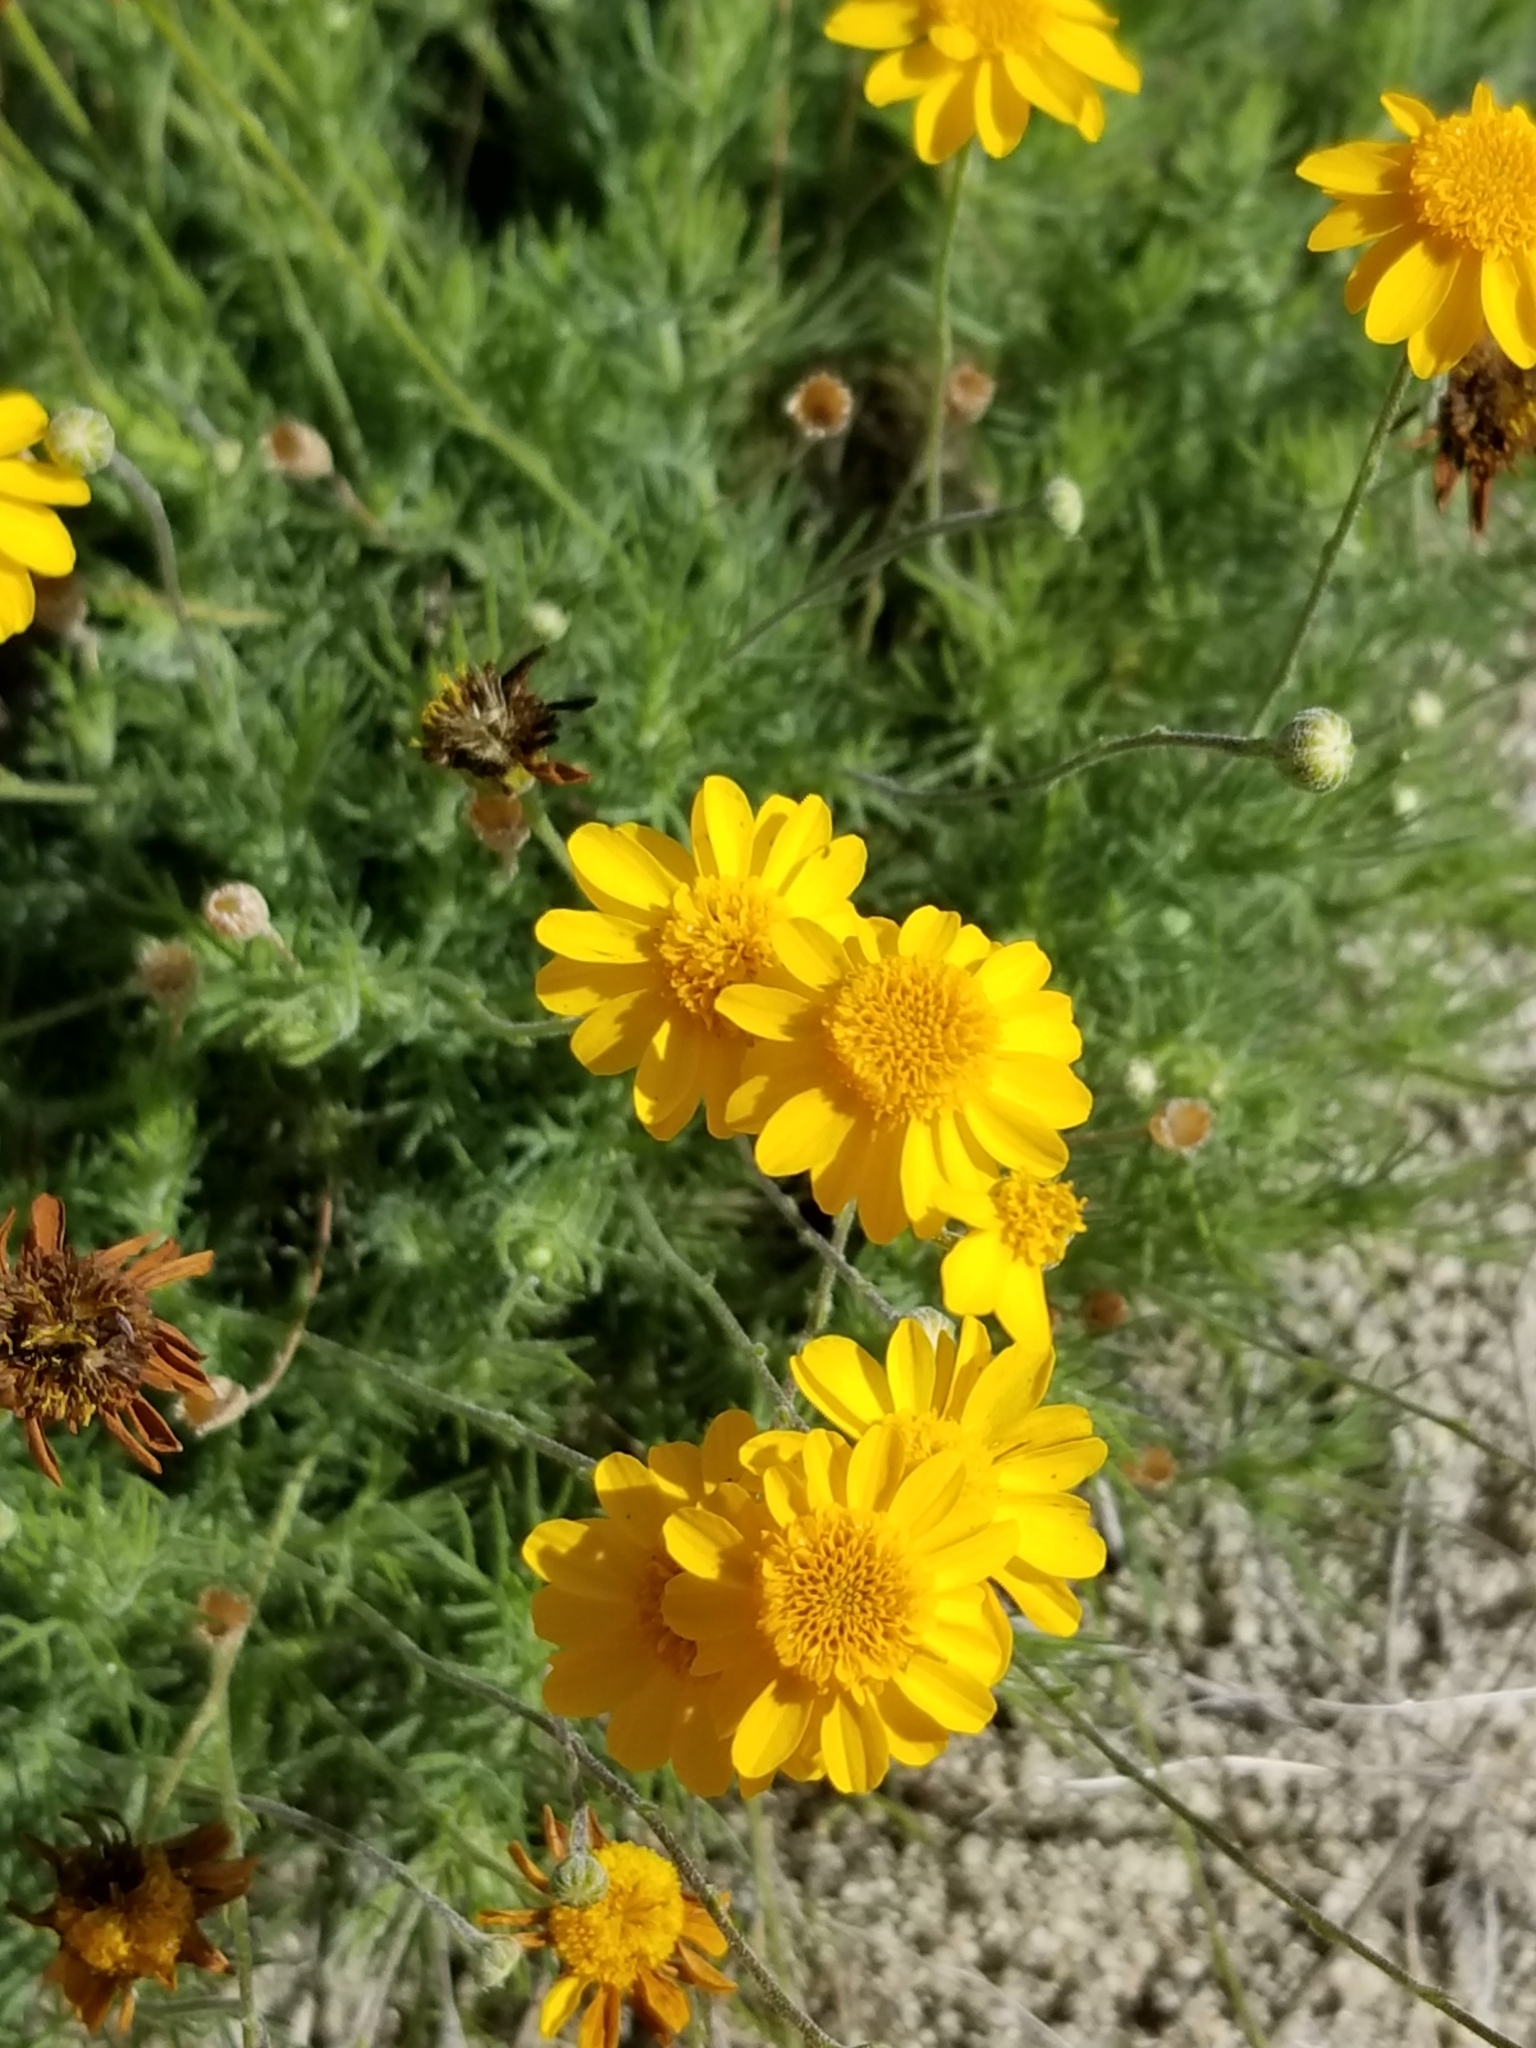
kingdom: Plantae
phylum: Tracheophyta
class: Magnoliopsida
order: Asterales
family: Asteraceae
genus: Thymophylla
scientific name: Thymophylla pentachaeta
